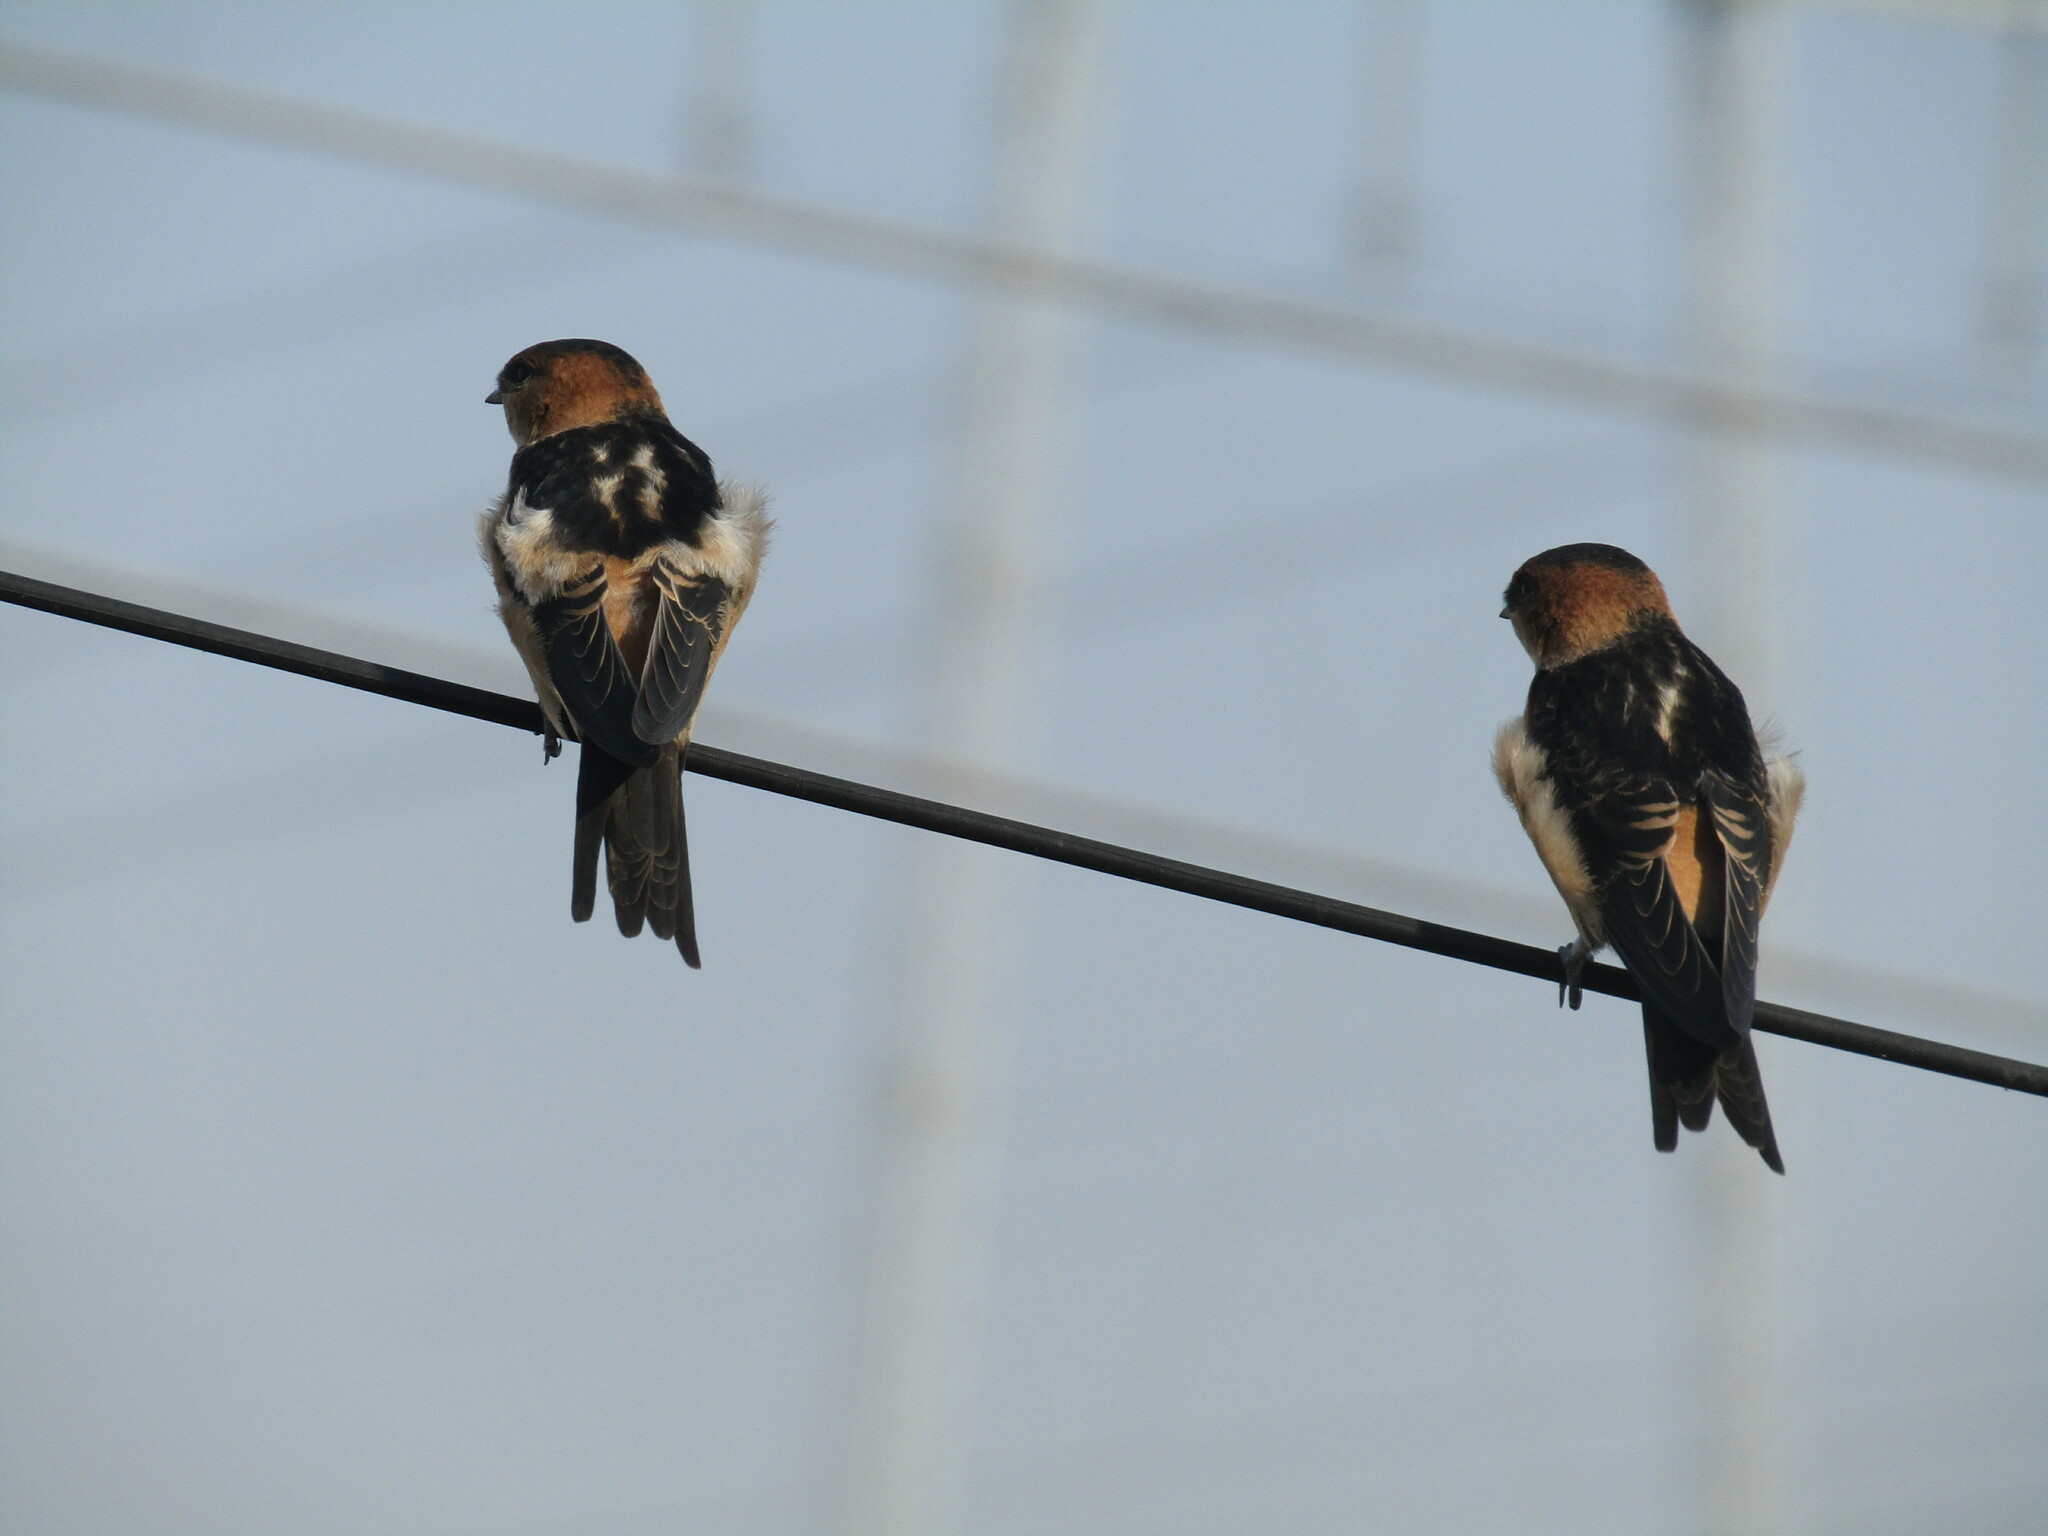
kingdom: Animalia
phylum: Chordata
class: Aves
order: Passeriformes
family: Hirundinidae
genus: Cecropis
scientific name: Cecropis daurica
